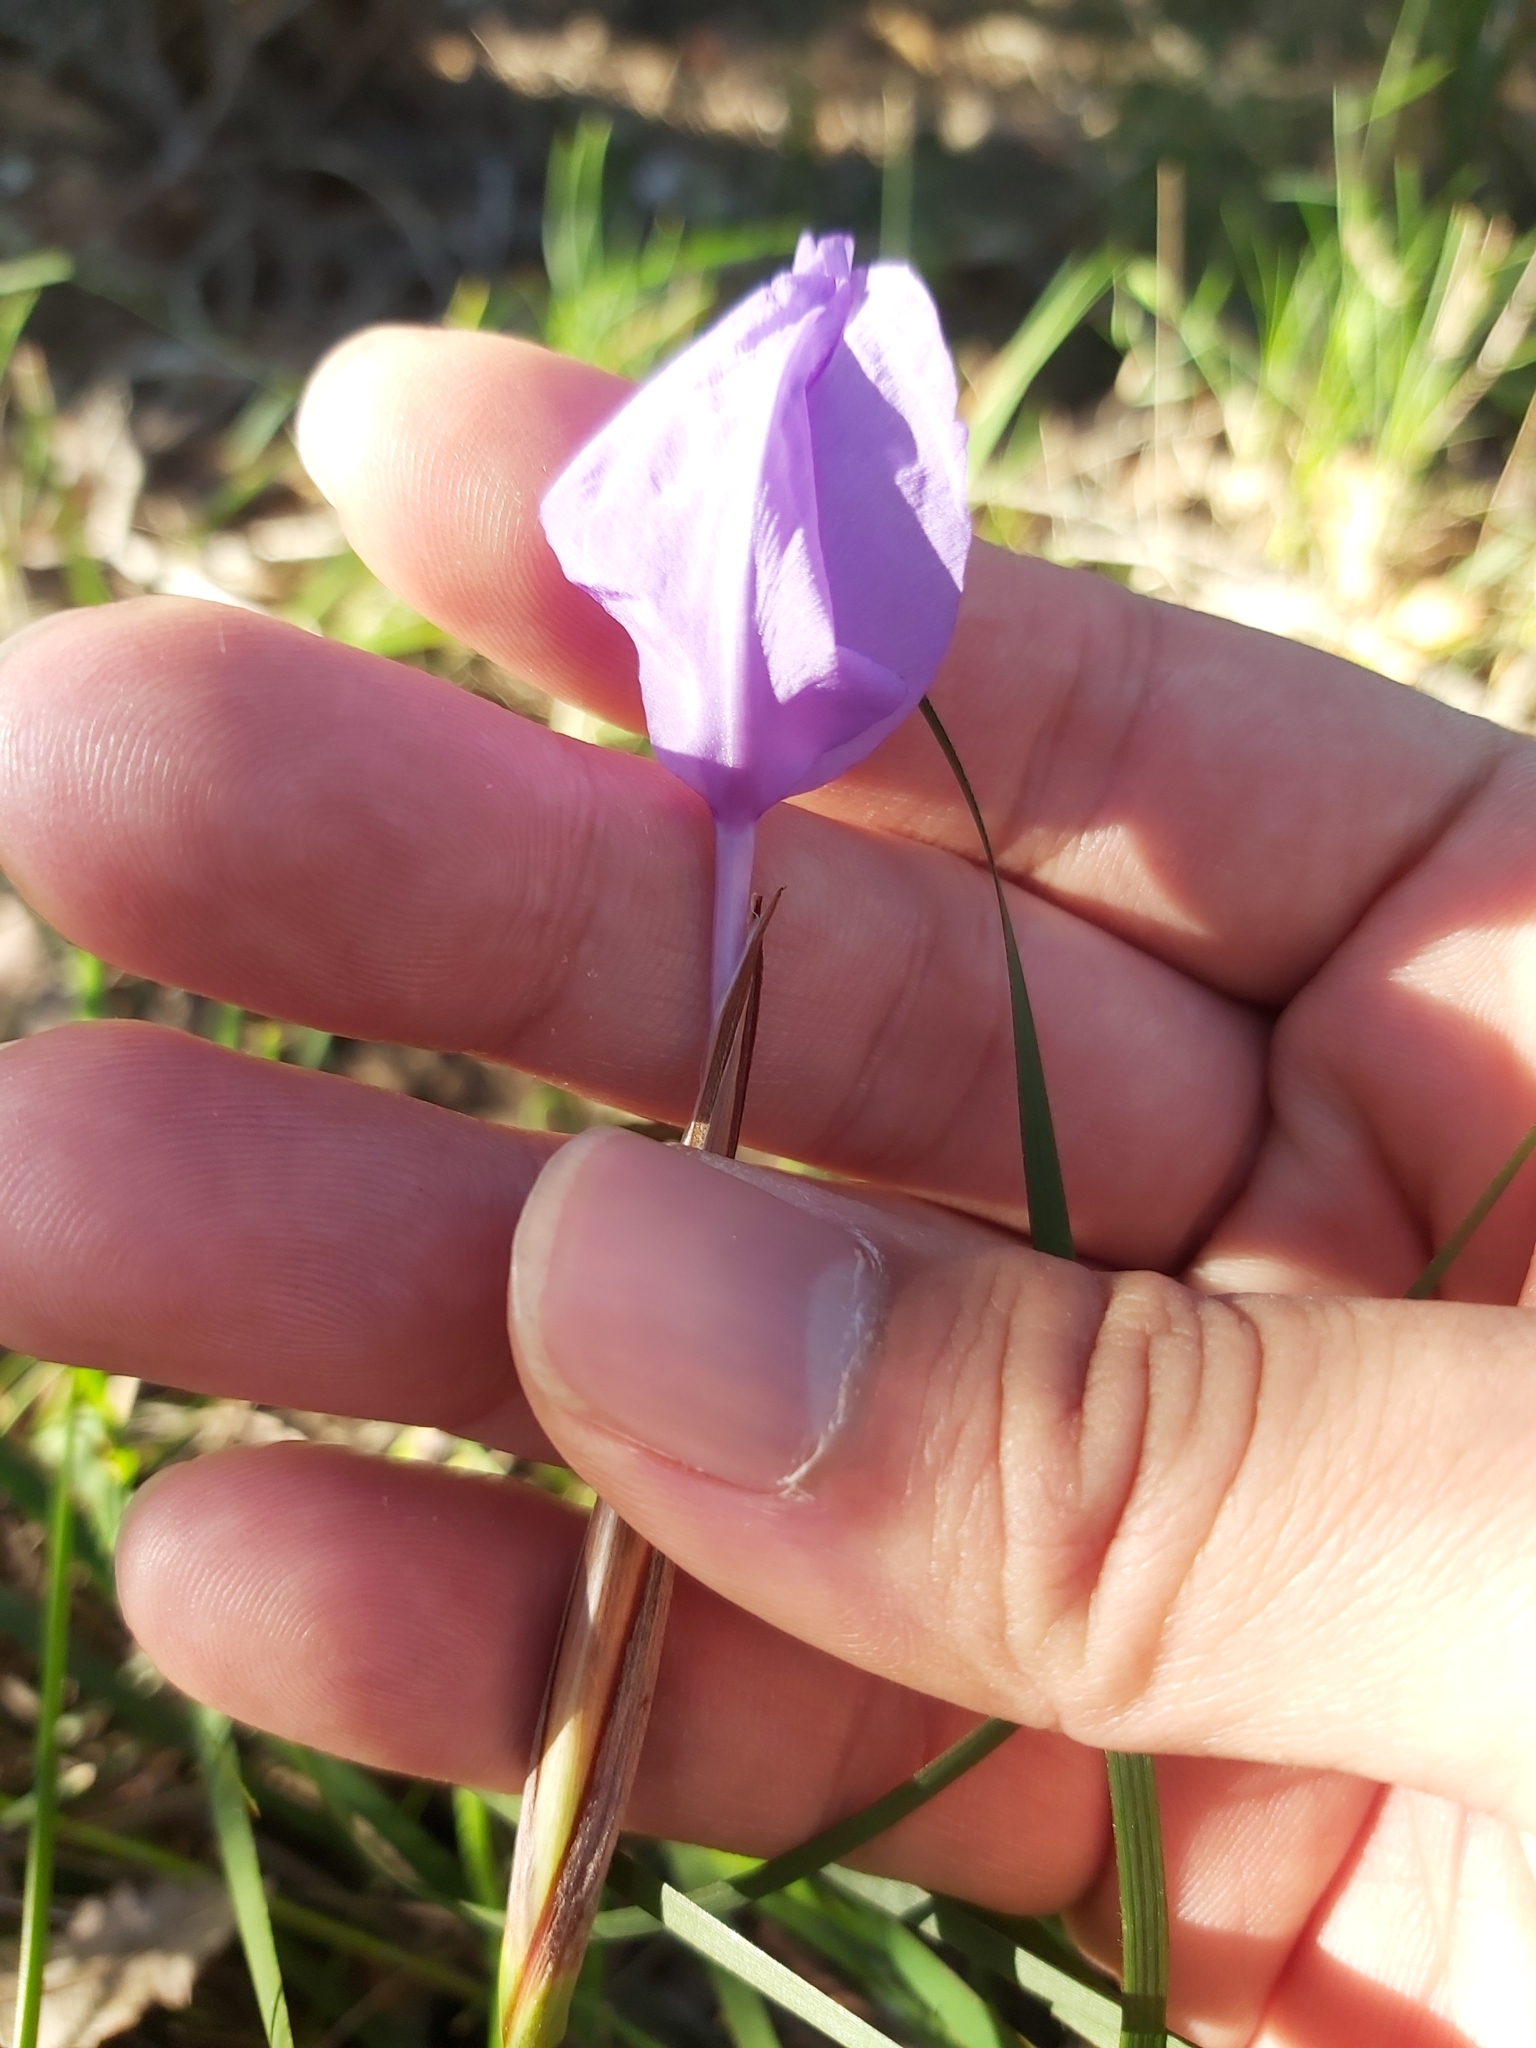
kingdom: Plantae
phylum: Tracheophyta
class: Liliopsida
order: Asparagales
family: Iridaceae
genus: Patersonia
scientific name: Patersonia glabrata
